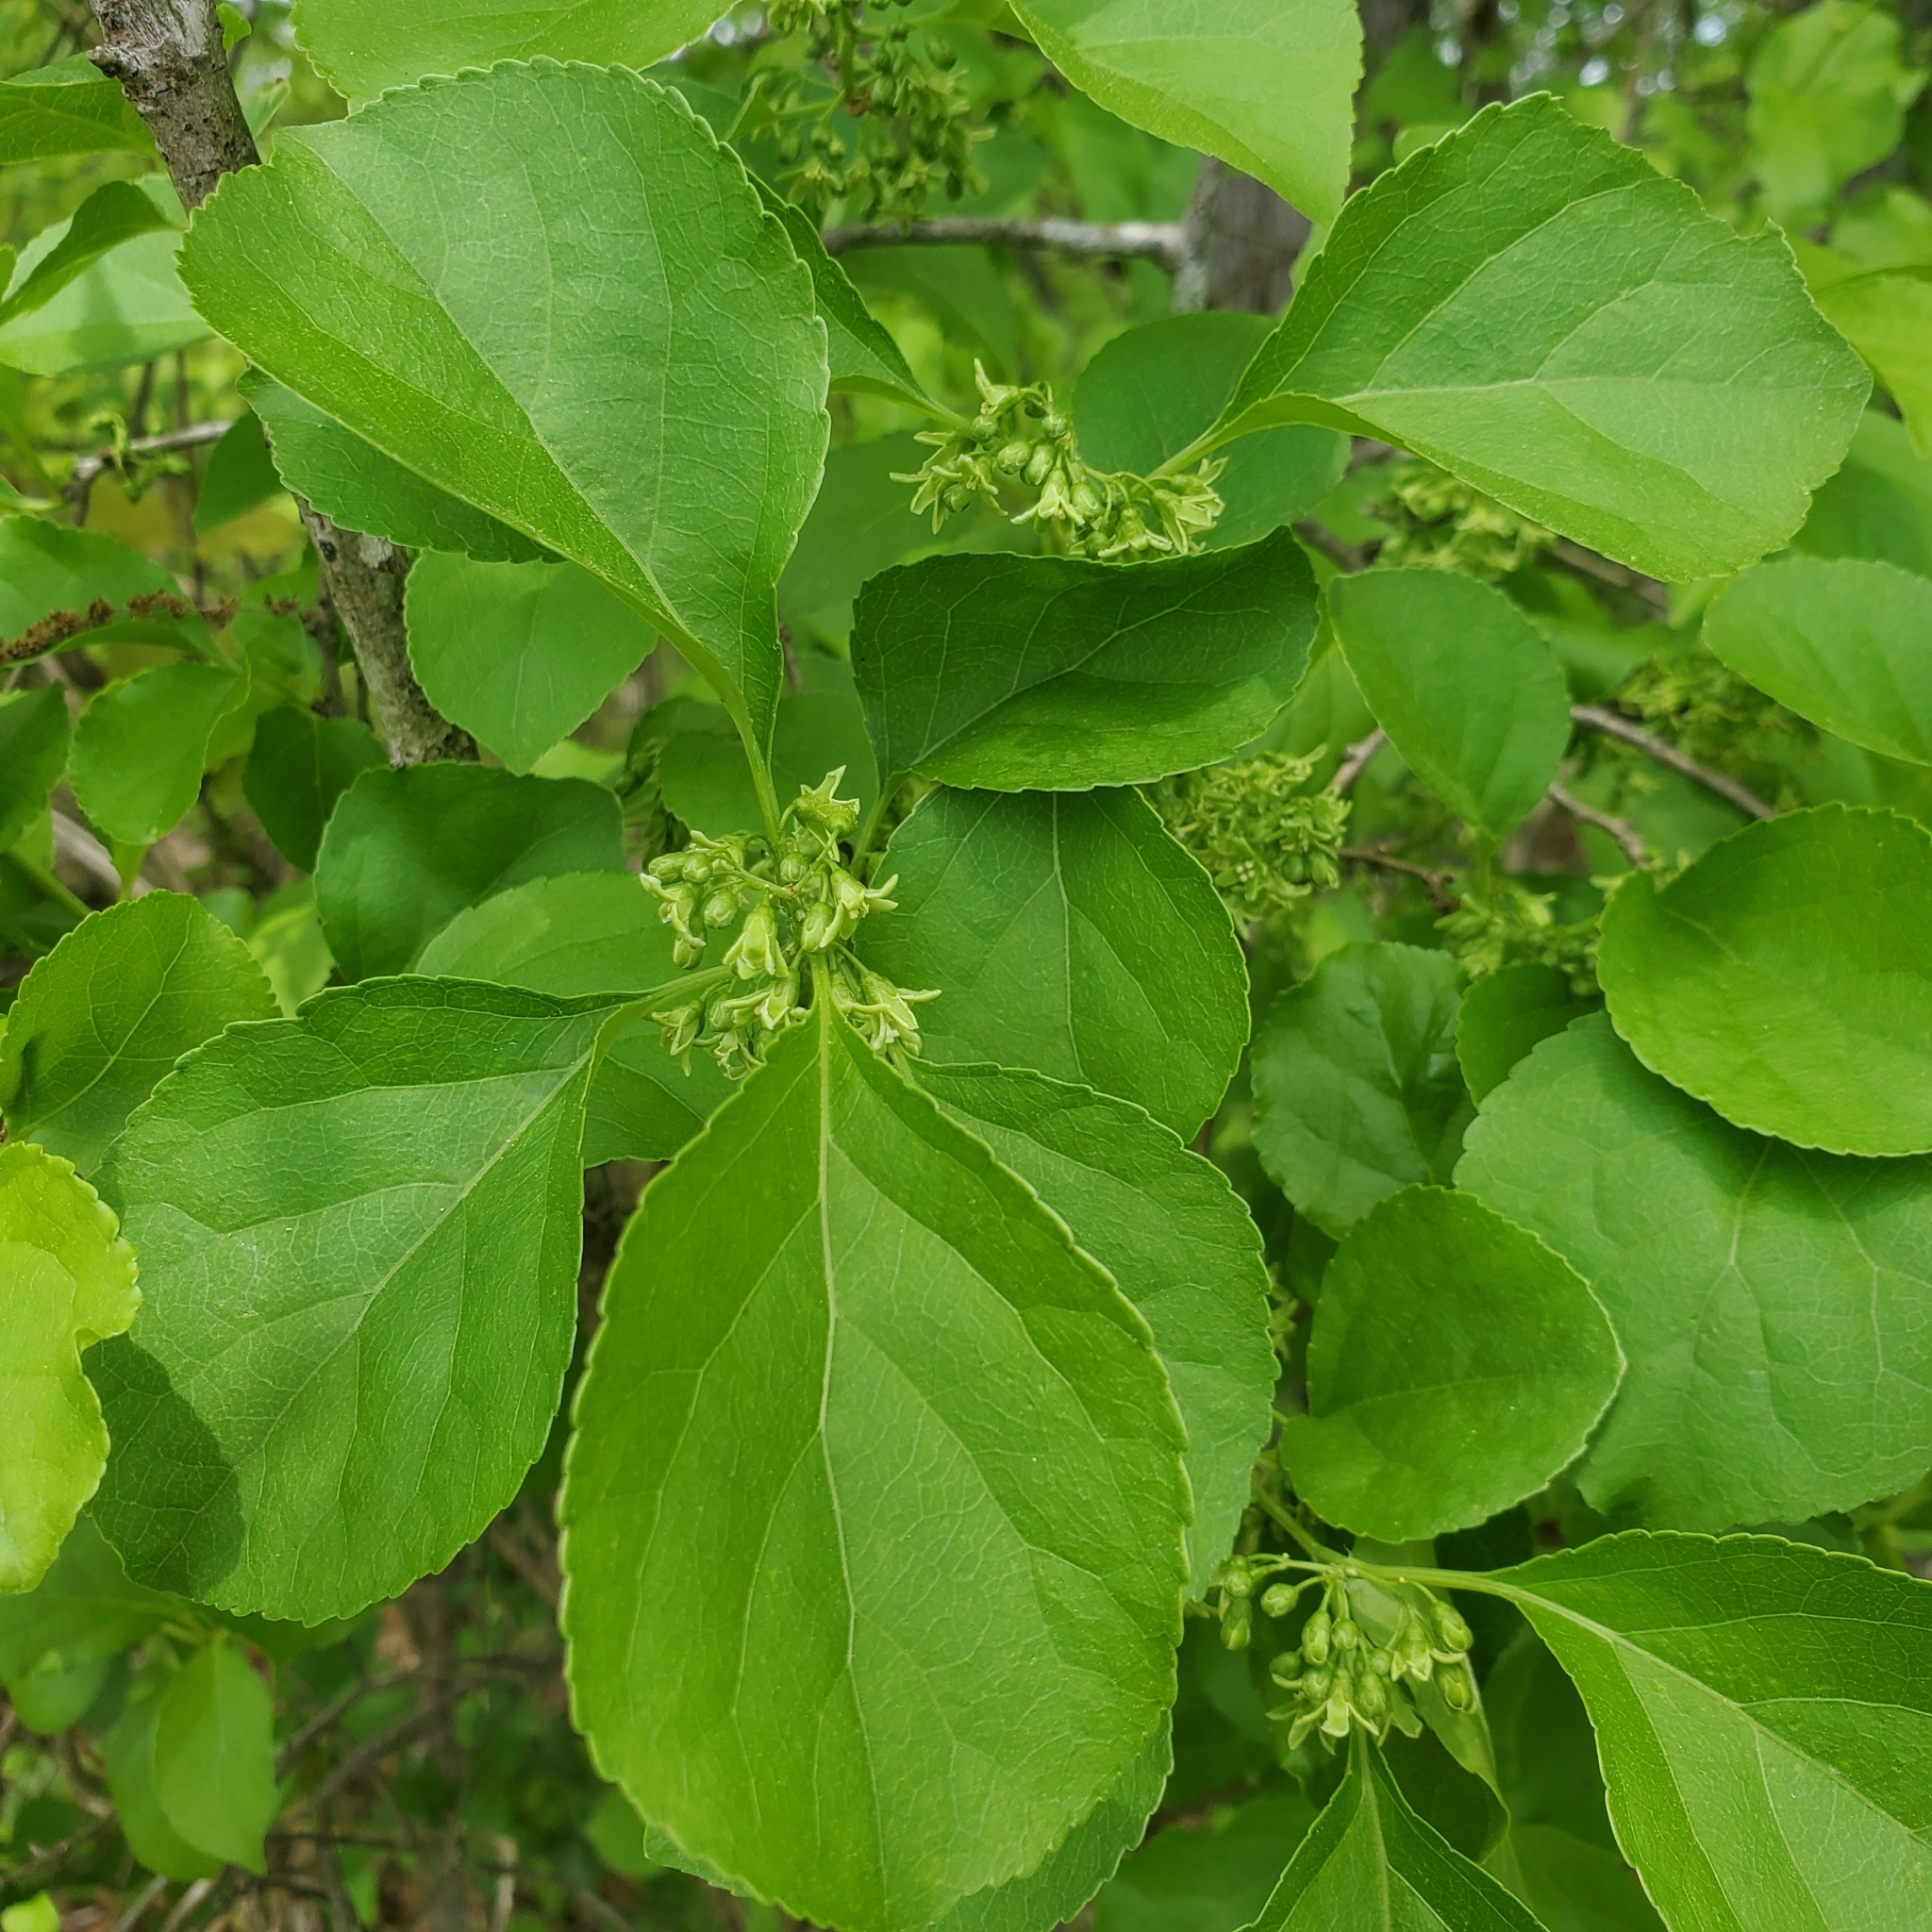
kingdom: Plantae
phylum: Tracheophyta
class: Magnoliopsida
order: Celastrales
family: Celastraceae
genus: Celastrus
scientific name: Celastrus orbiculatus
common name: Oriental bittersweet
